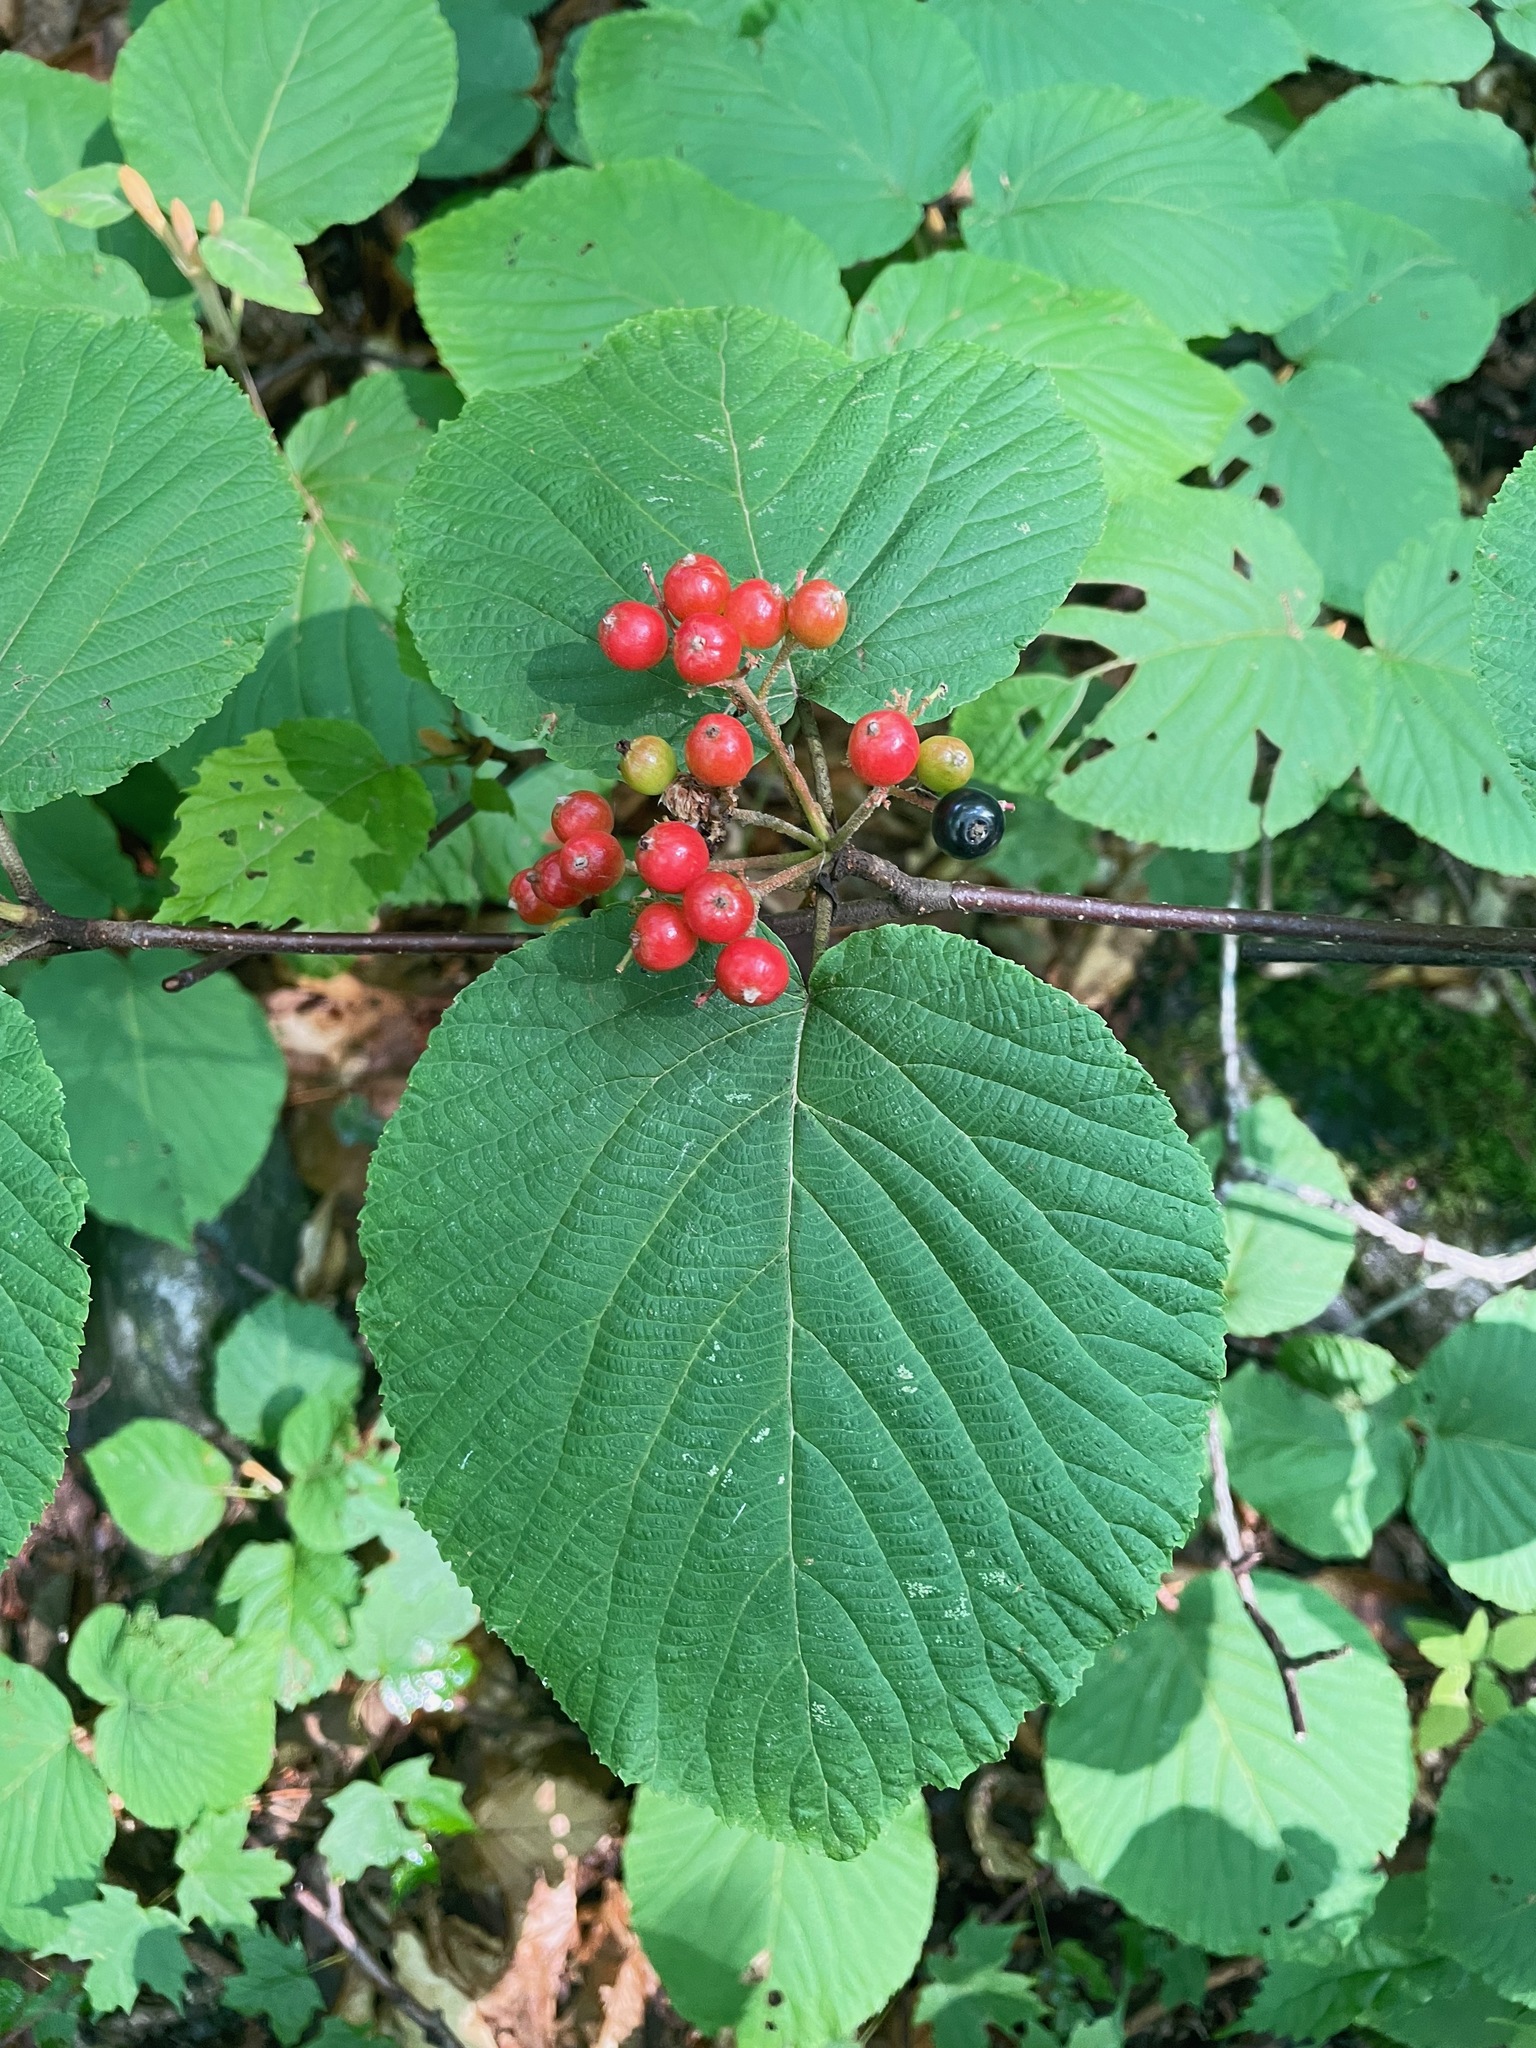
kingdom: Plantae
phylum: Tracheophyta
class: Magnoliopsida
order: Dipsacales
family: Viburnaceae
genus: Viburnum
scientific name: Viburnum lantanoides
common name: Hobblebush
